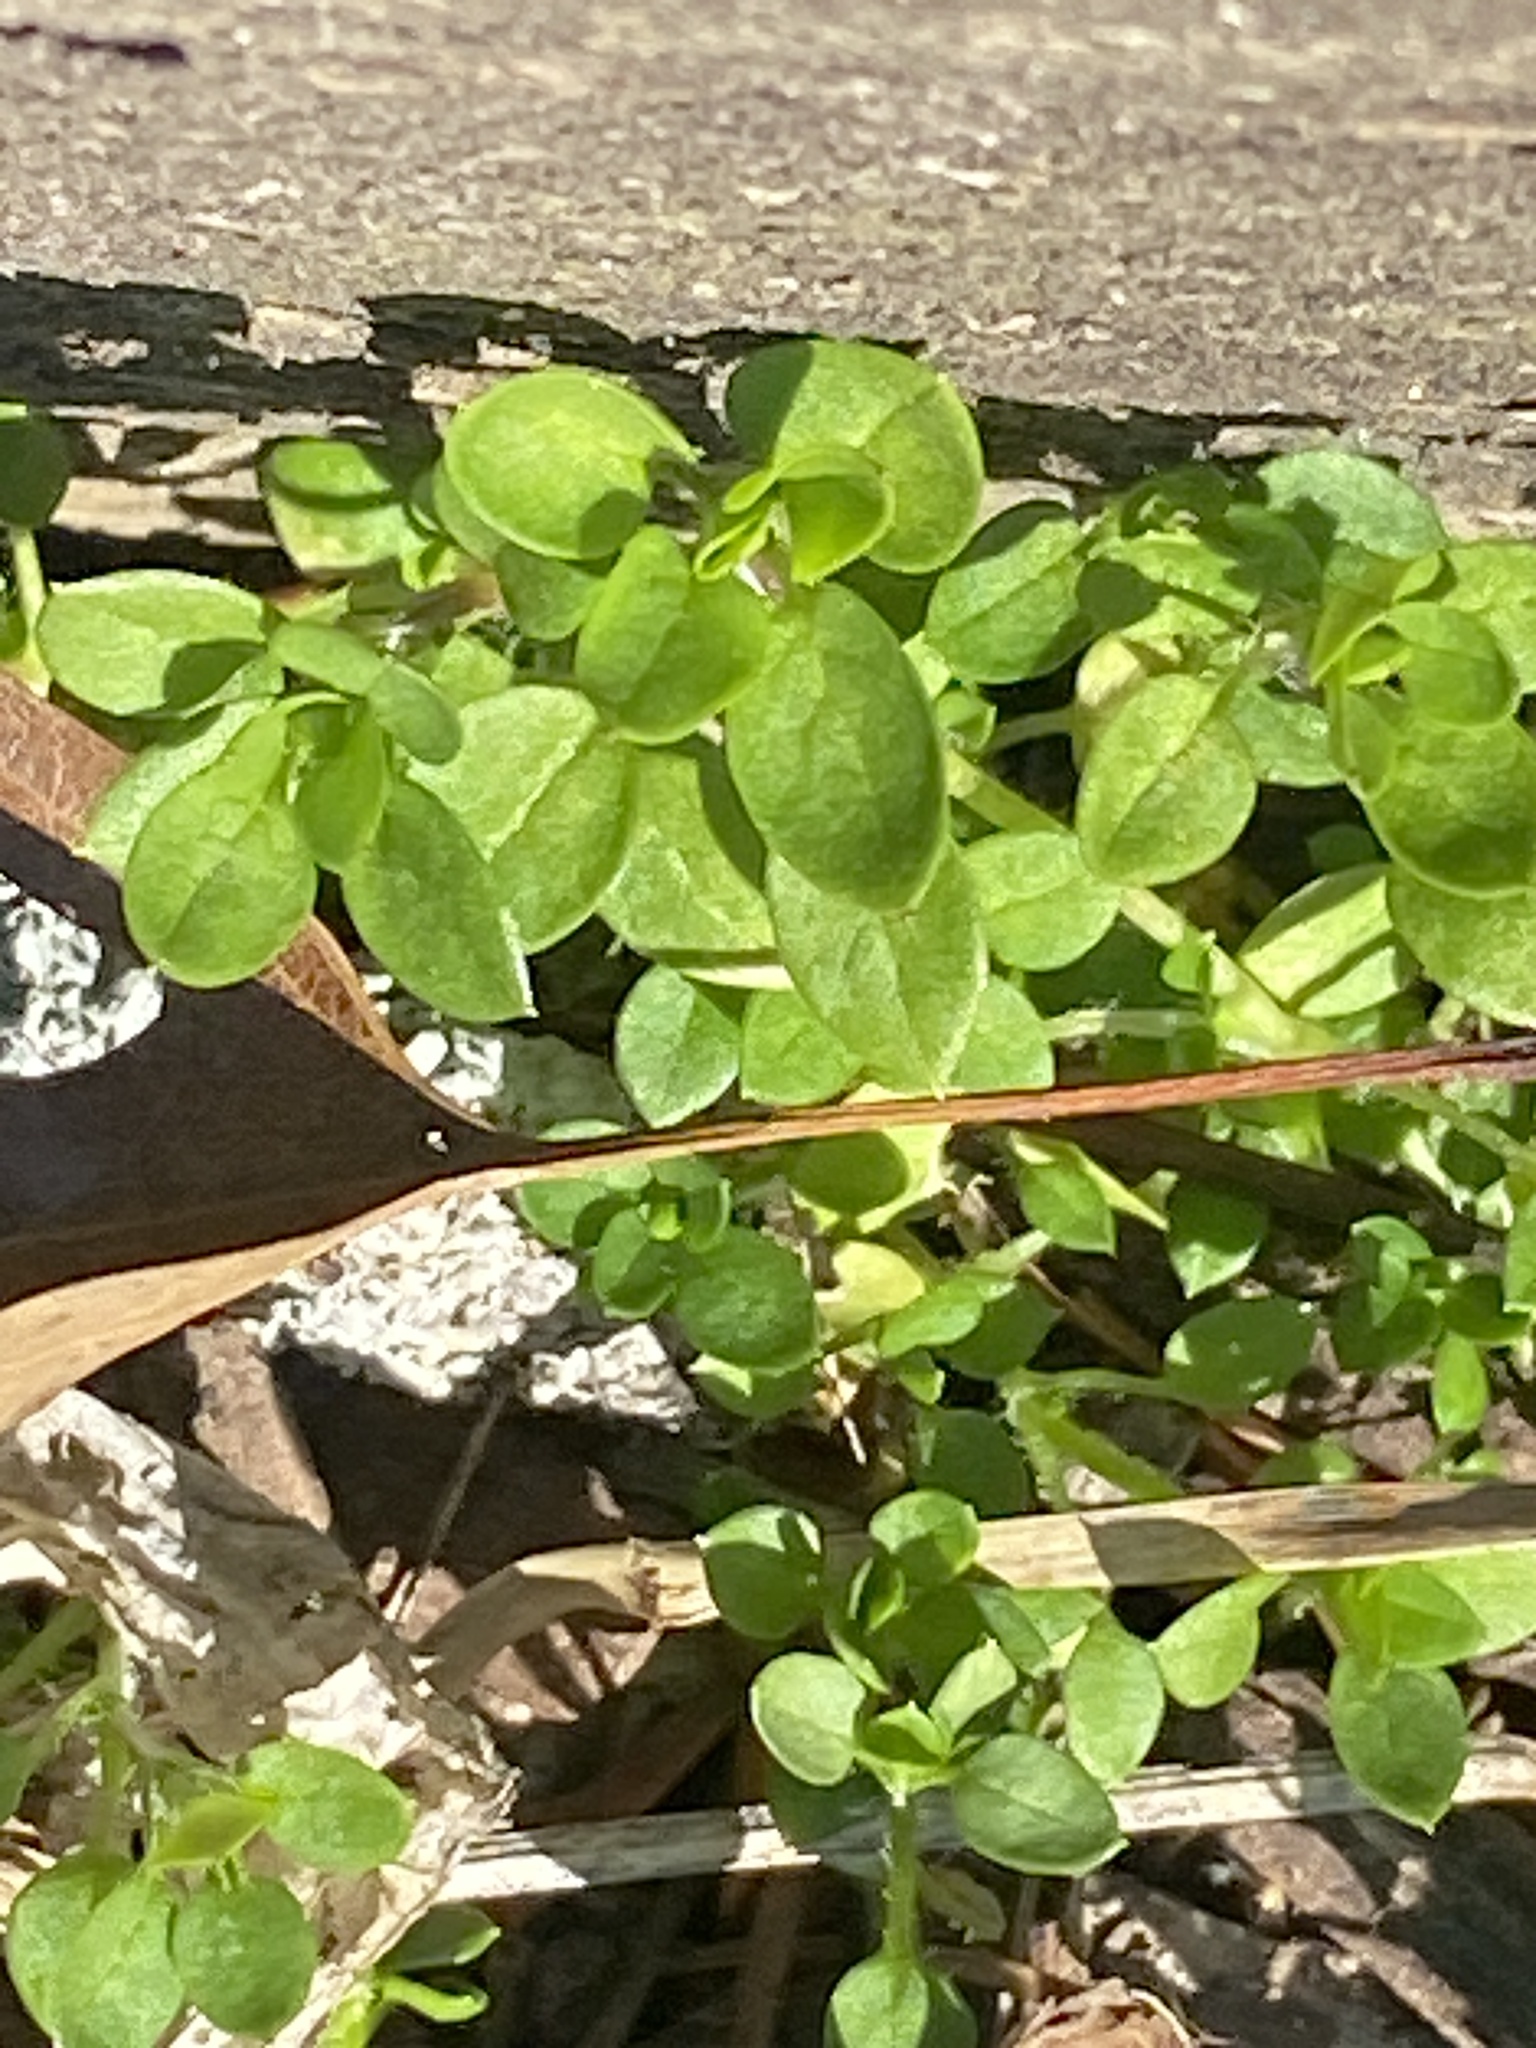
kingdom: Plantae
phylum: Tracheophyta
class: Magnoliopsida
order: Caryophyllales
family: Caryophyllaceae
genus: Stellaria
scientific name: Stellaria media
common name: Common chickweed
